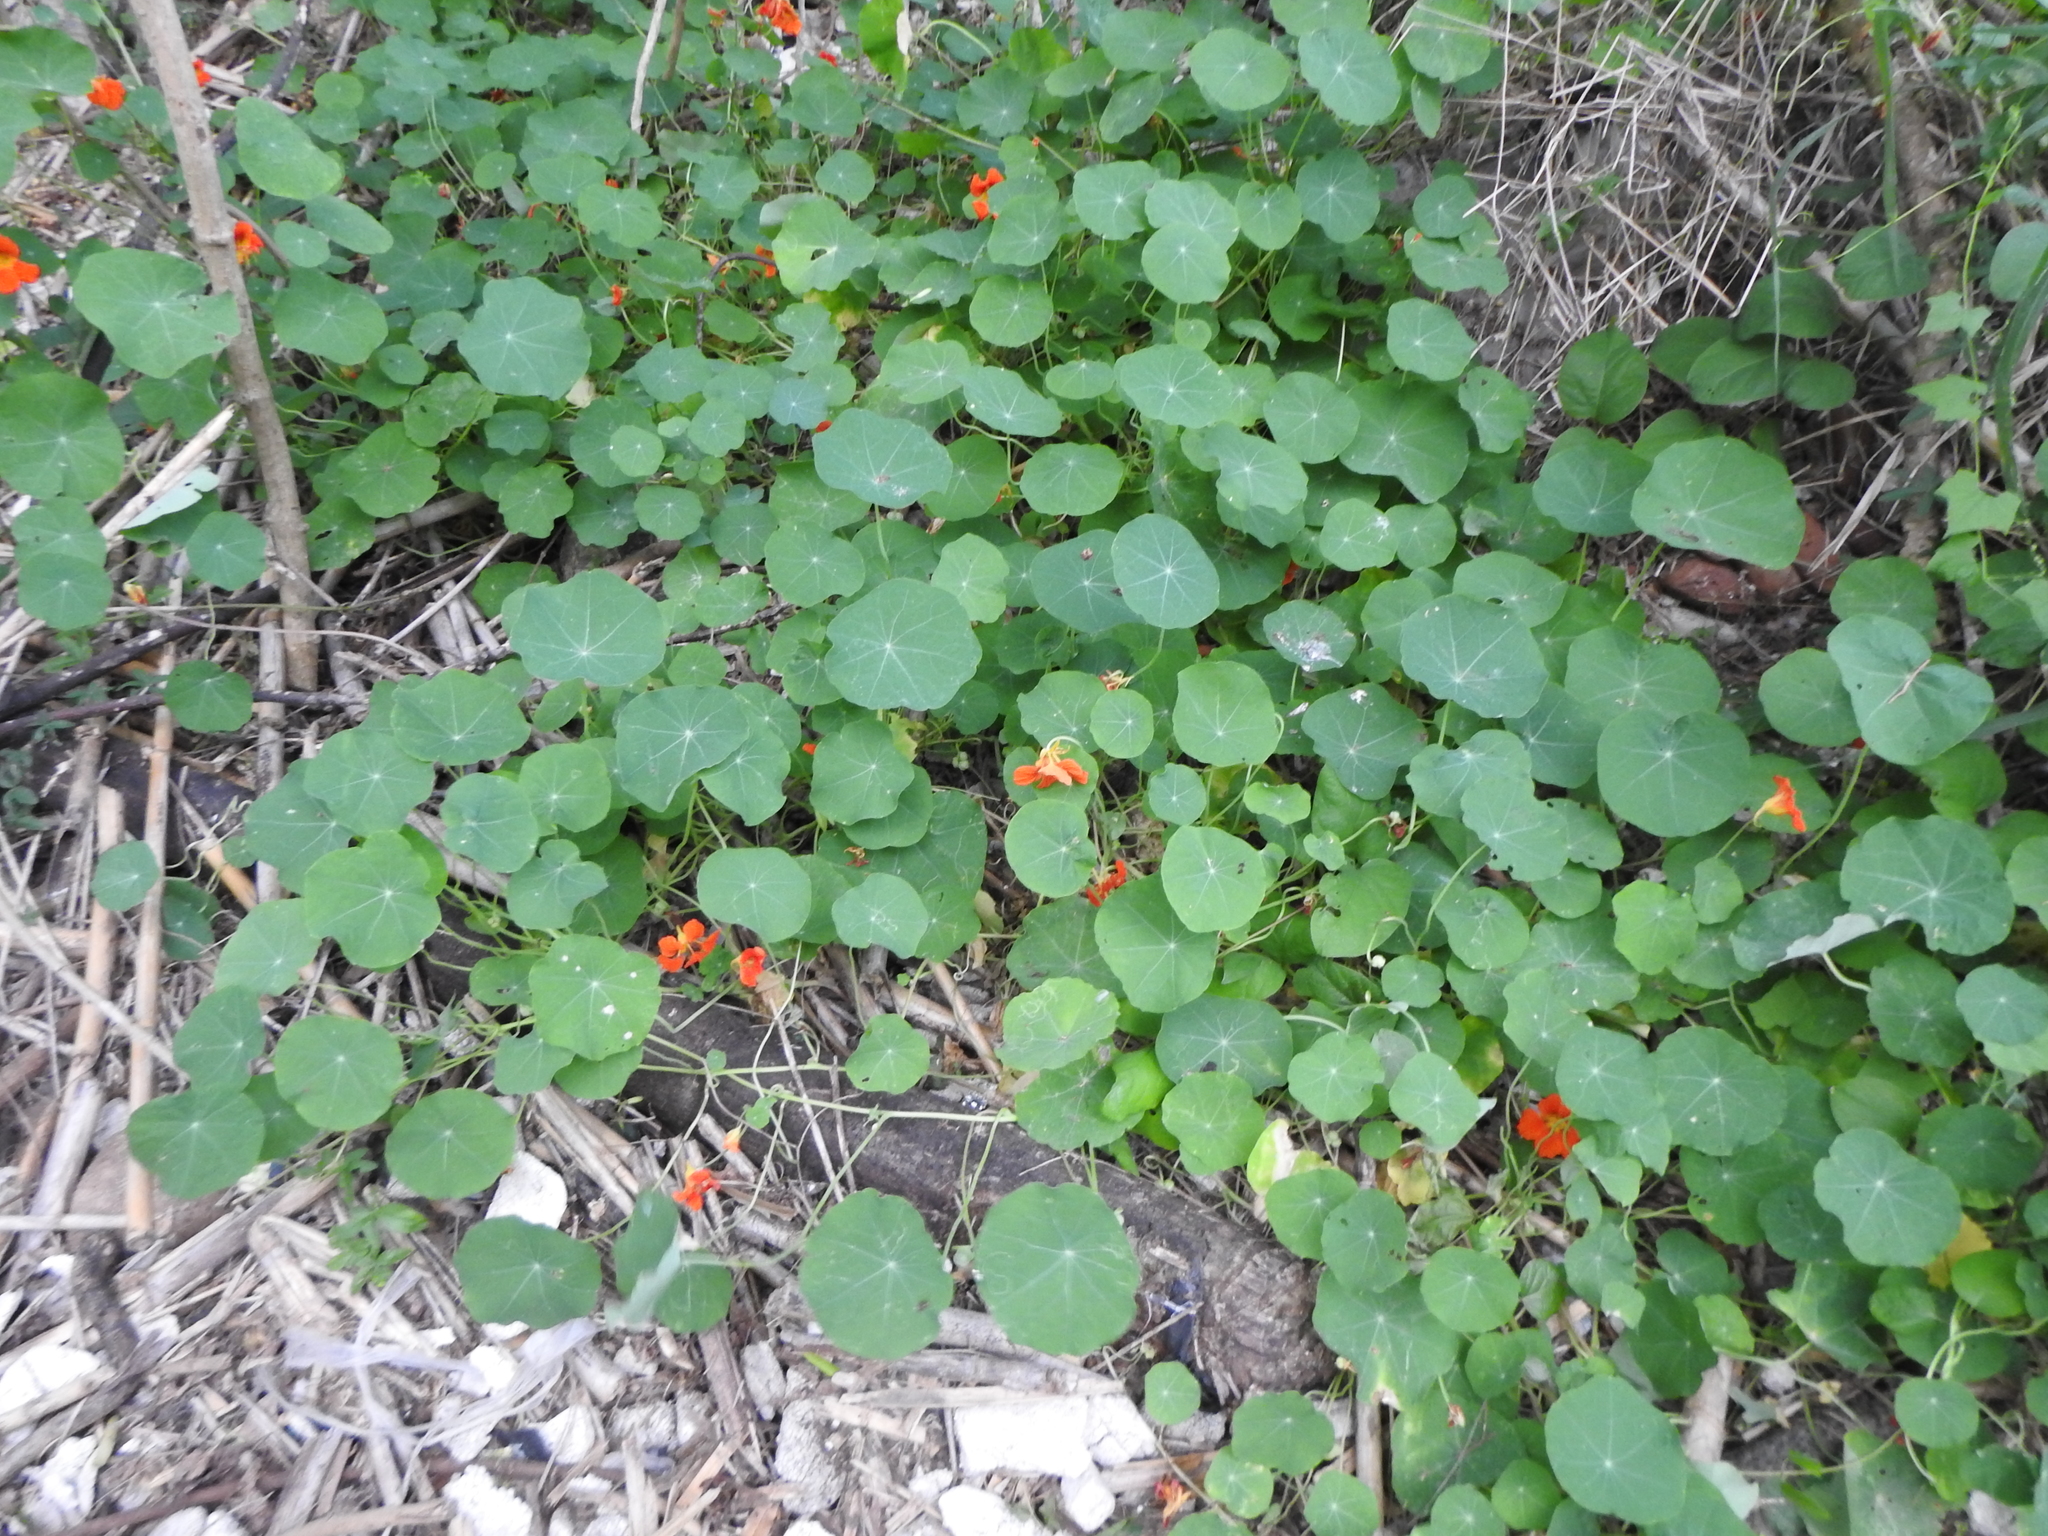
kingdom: Plantae
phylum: Tracheophyta
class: Magnoliopsida
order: Brassicales
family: Tropaeolaceae
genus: Tropaeolum
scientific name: Tropaeolum majus
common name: Nasturtium
